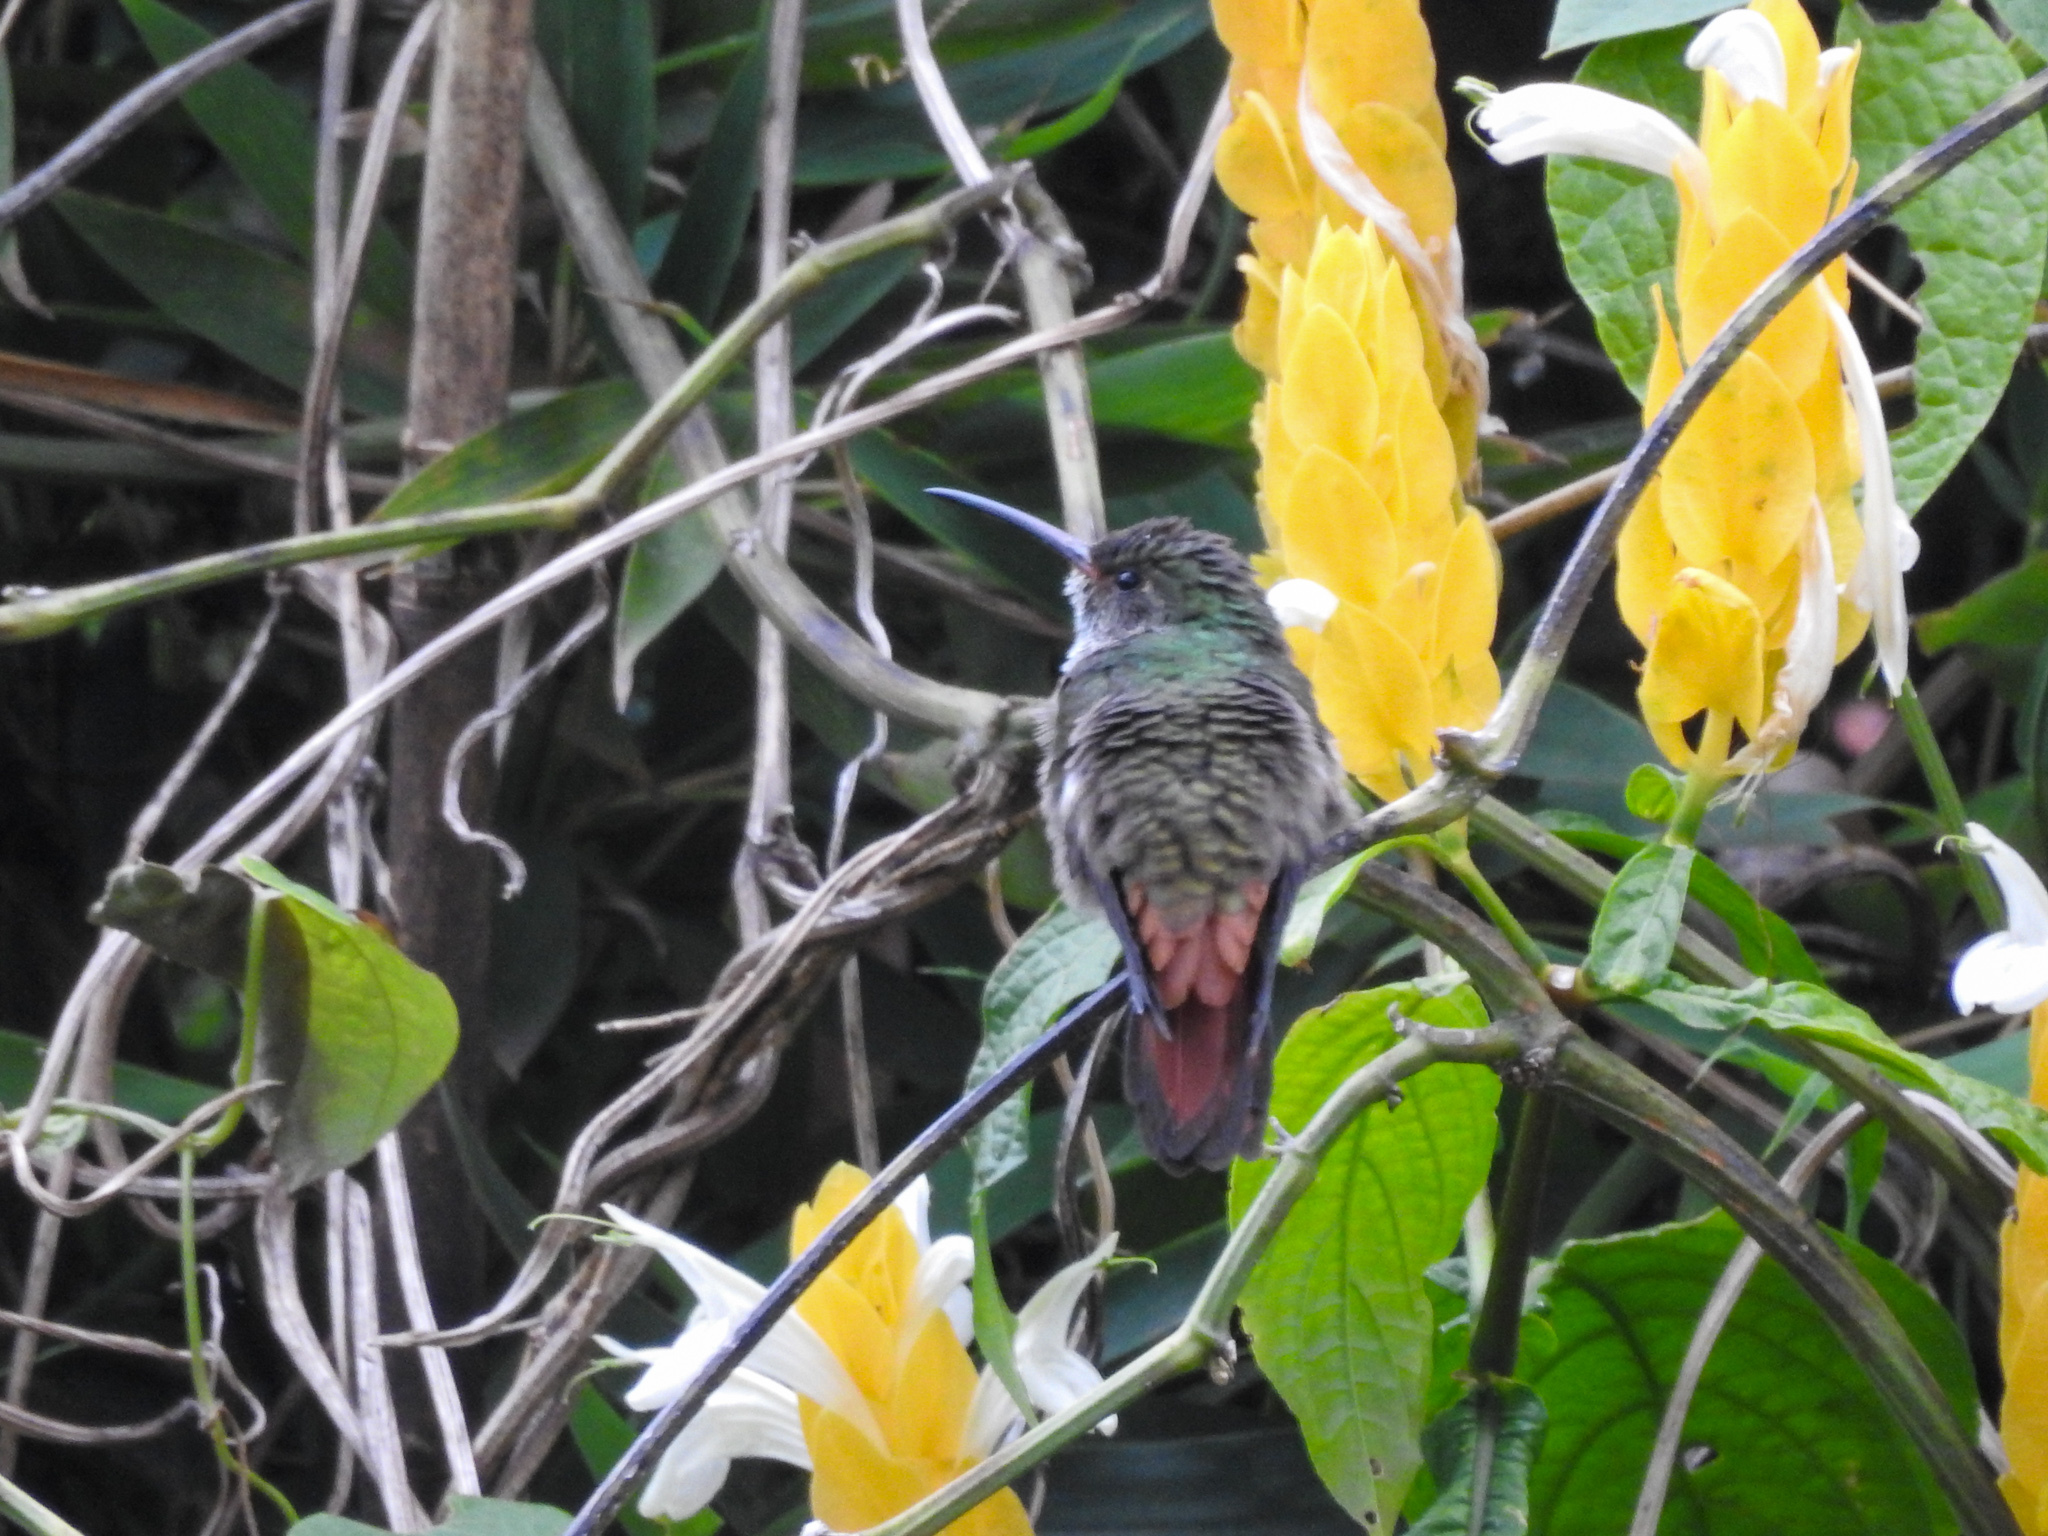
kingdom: Animalia
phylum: Chordata
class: Aves
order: Apodiformes
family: Trochilidae
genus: Amazilia
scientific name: Amazilia tzacatl
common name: Rufous-tailed hummingbird
